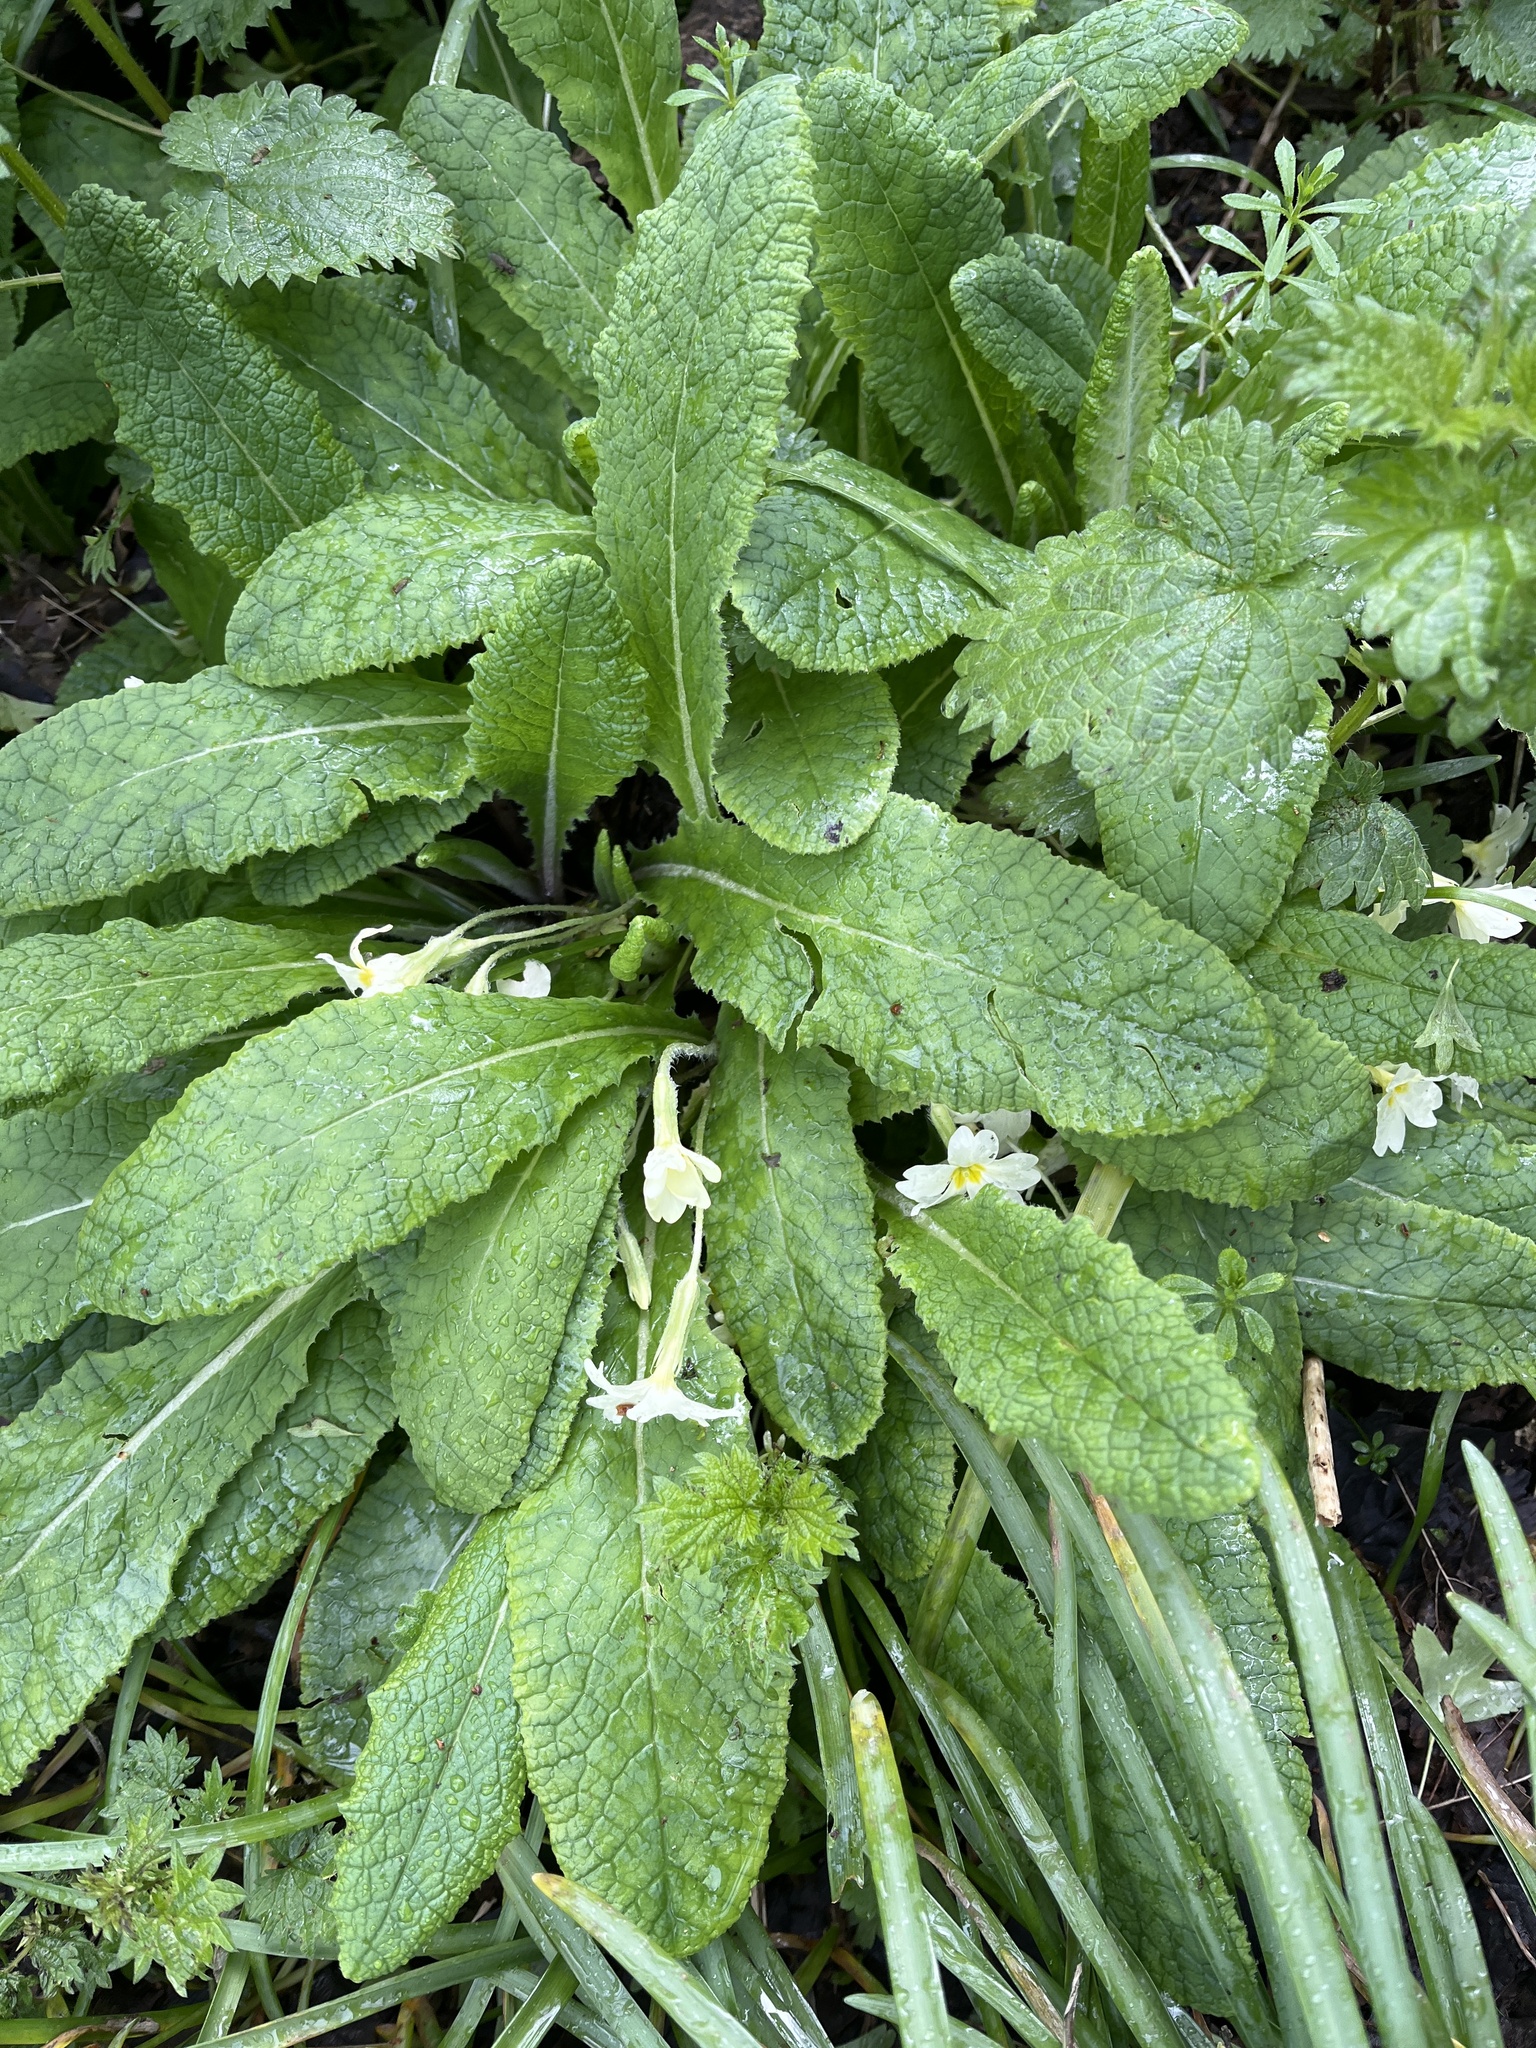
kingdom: Plantae
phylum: Tracheophyta
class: Magnoliopsida
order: Ericales
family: Primulaceae
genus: Primula
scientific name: Primula vulgaris
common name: Primrose
